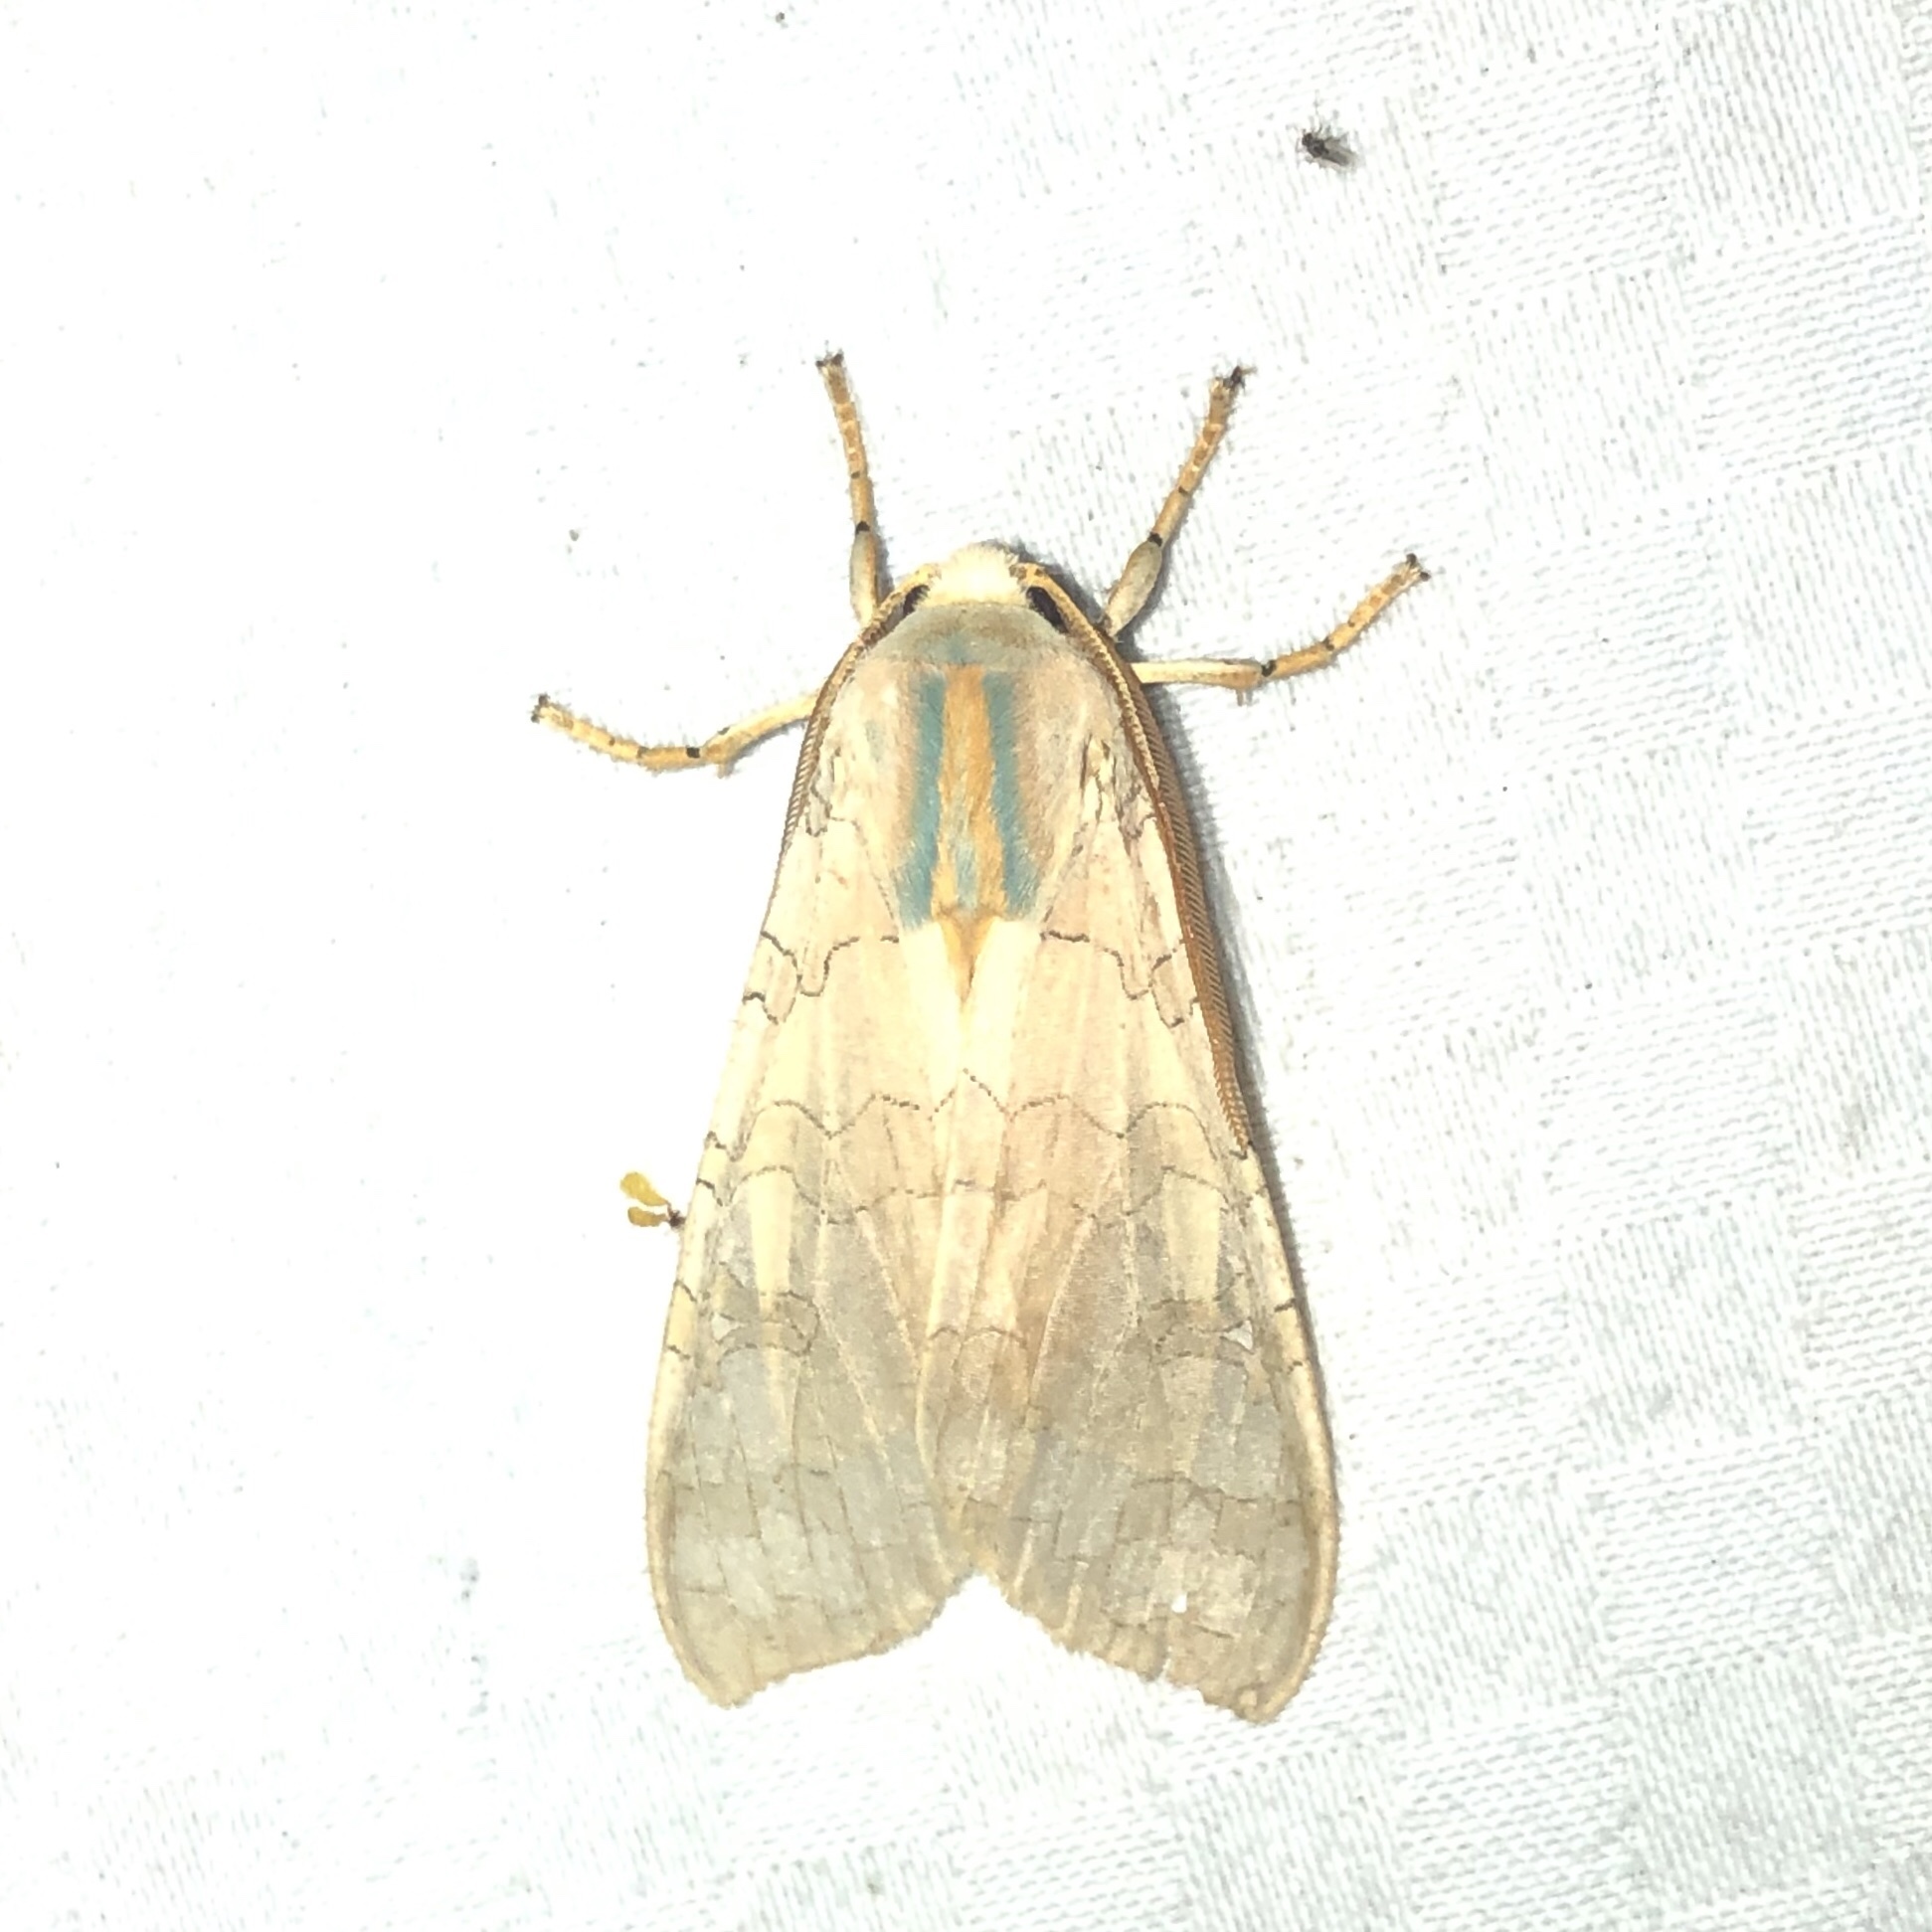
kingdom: Animalia
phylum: Arthropoda
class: Insecta
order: Lepidoptera
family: Erebidae
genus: Halysidota
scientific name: Halysidota tessellaris
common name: Banded tussock moth
